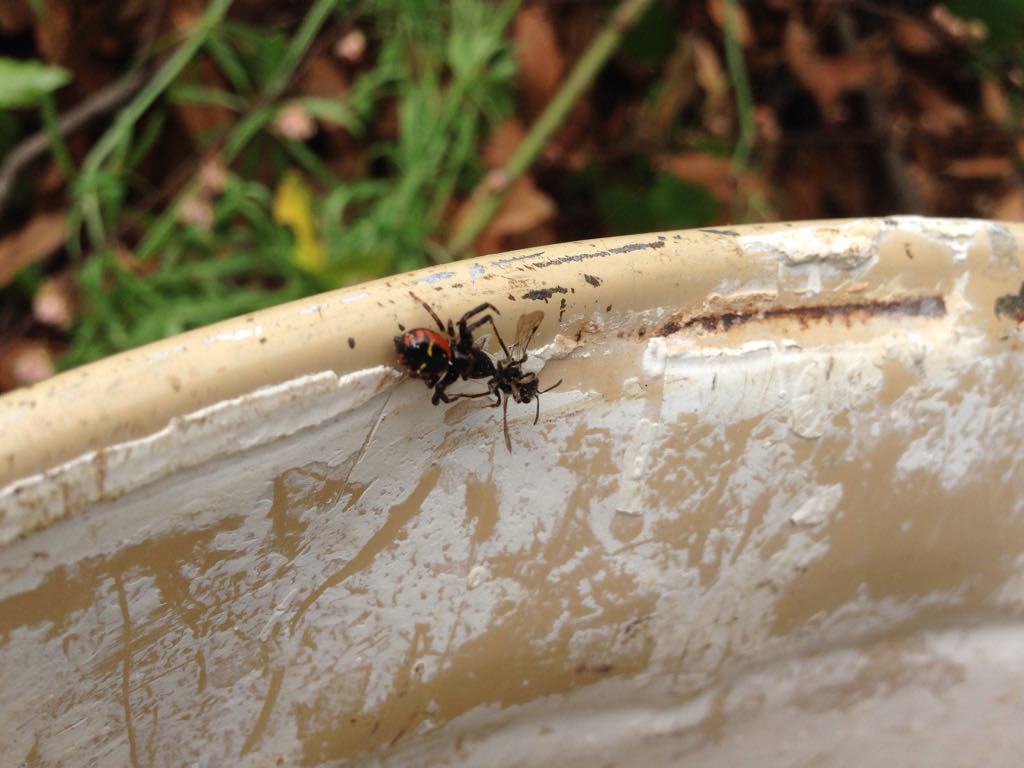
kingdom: Animalia
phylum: Arthropoda
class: Arachnida
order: Araneae
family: Thomisidae
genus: Synema
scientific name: Synema globosum
